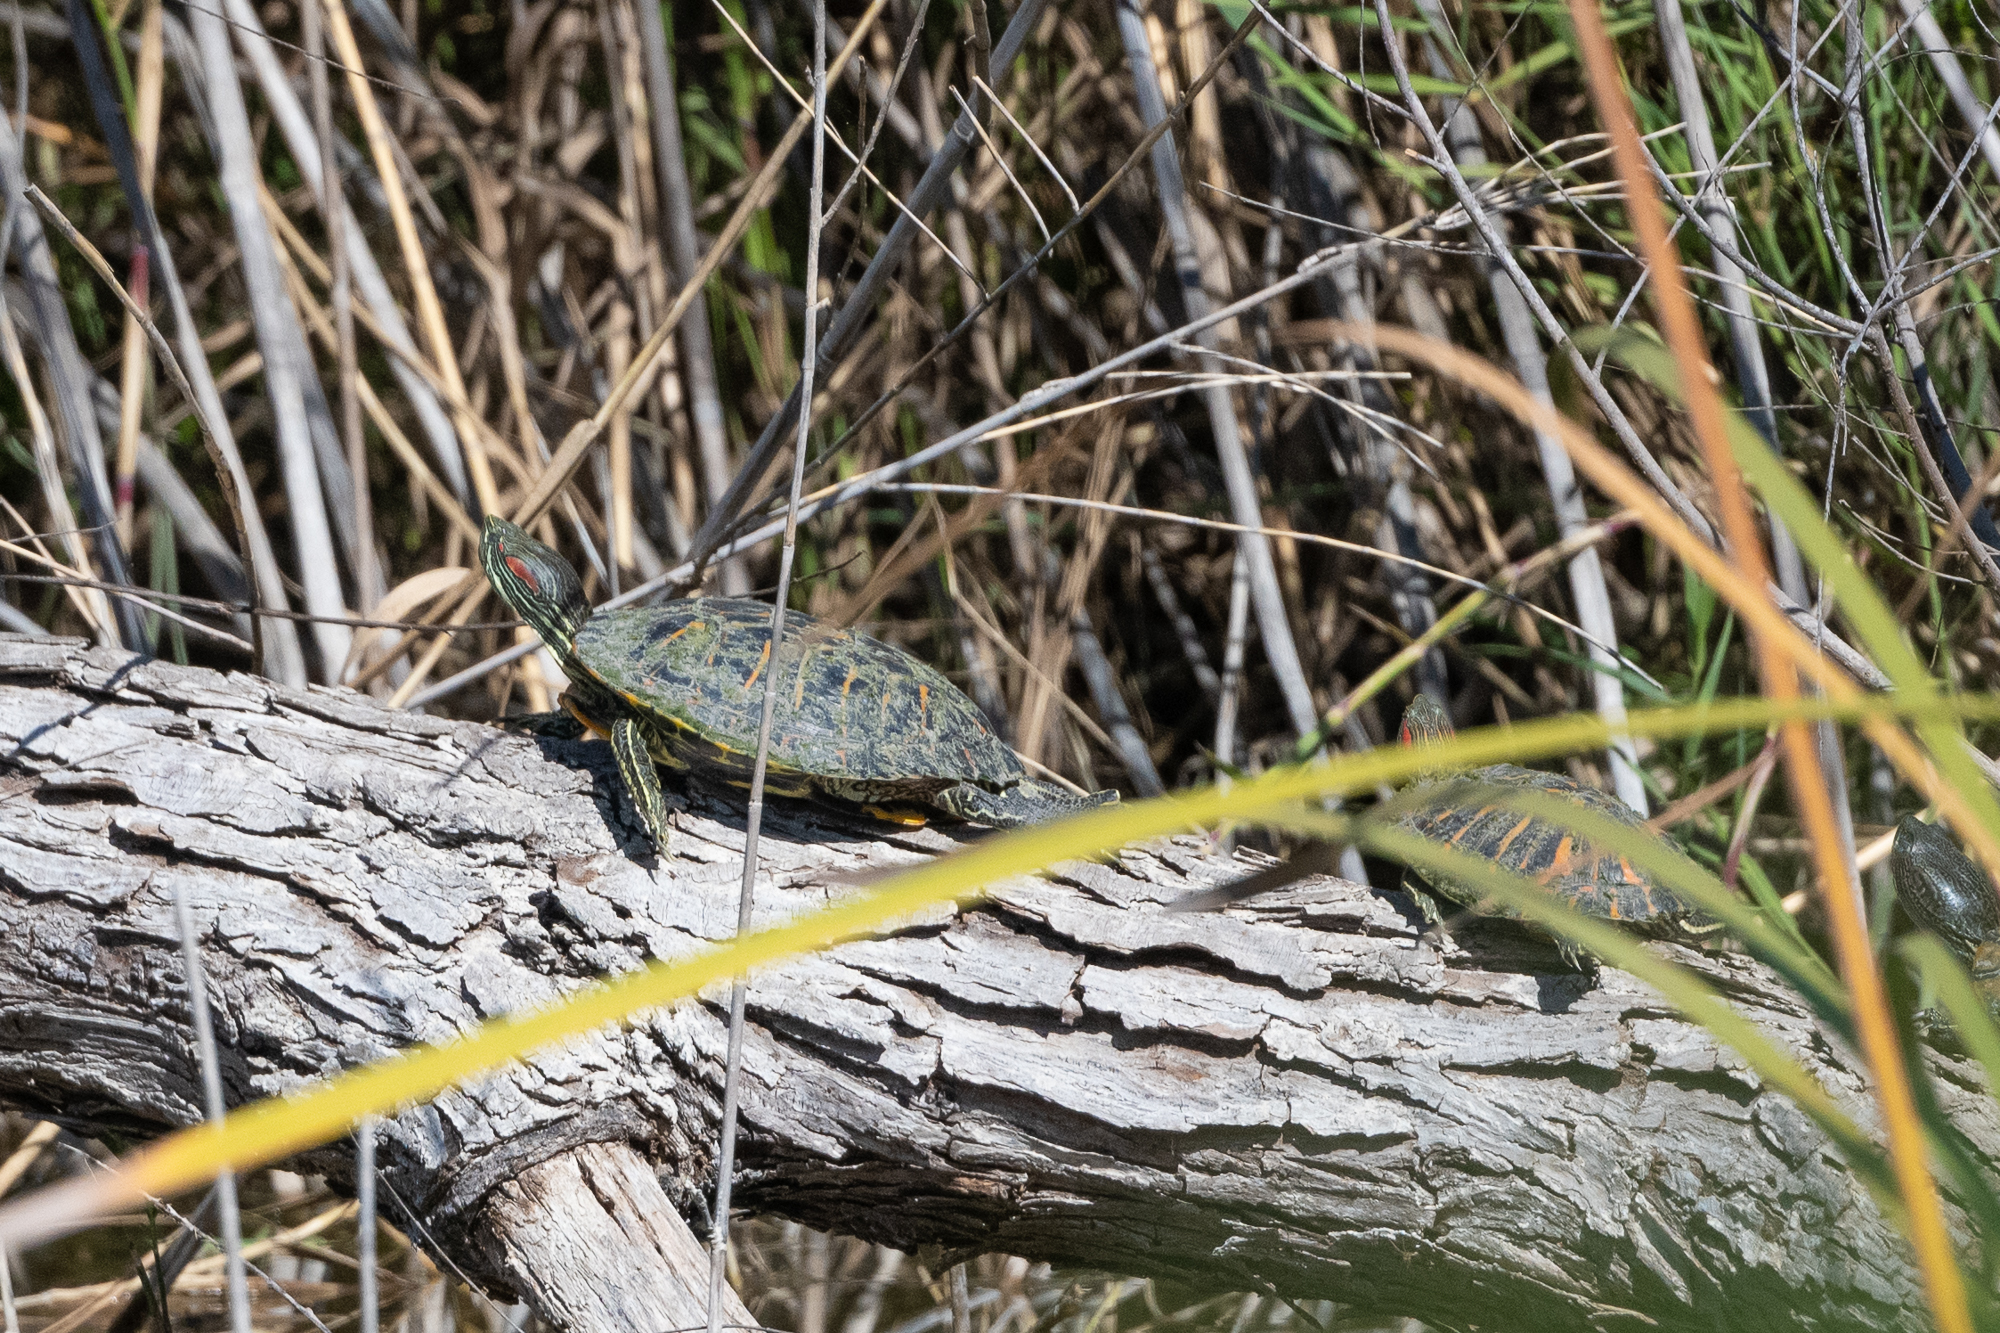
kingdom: Animalia
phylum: Chordata
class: Testudines
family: Emydidae
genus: Trachemys
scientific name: Trachemys scripta
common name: Slider
